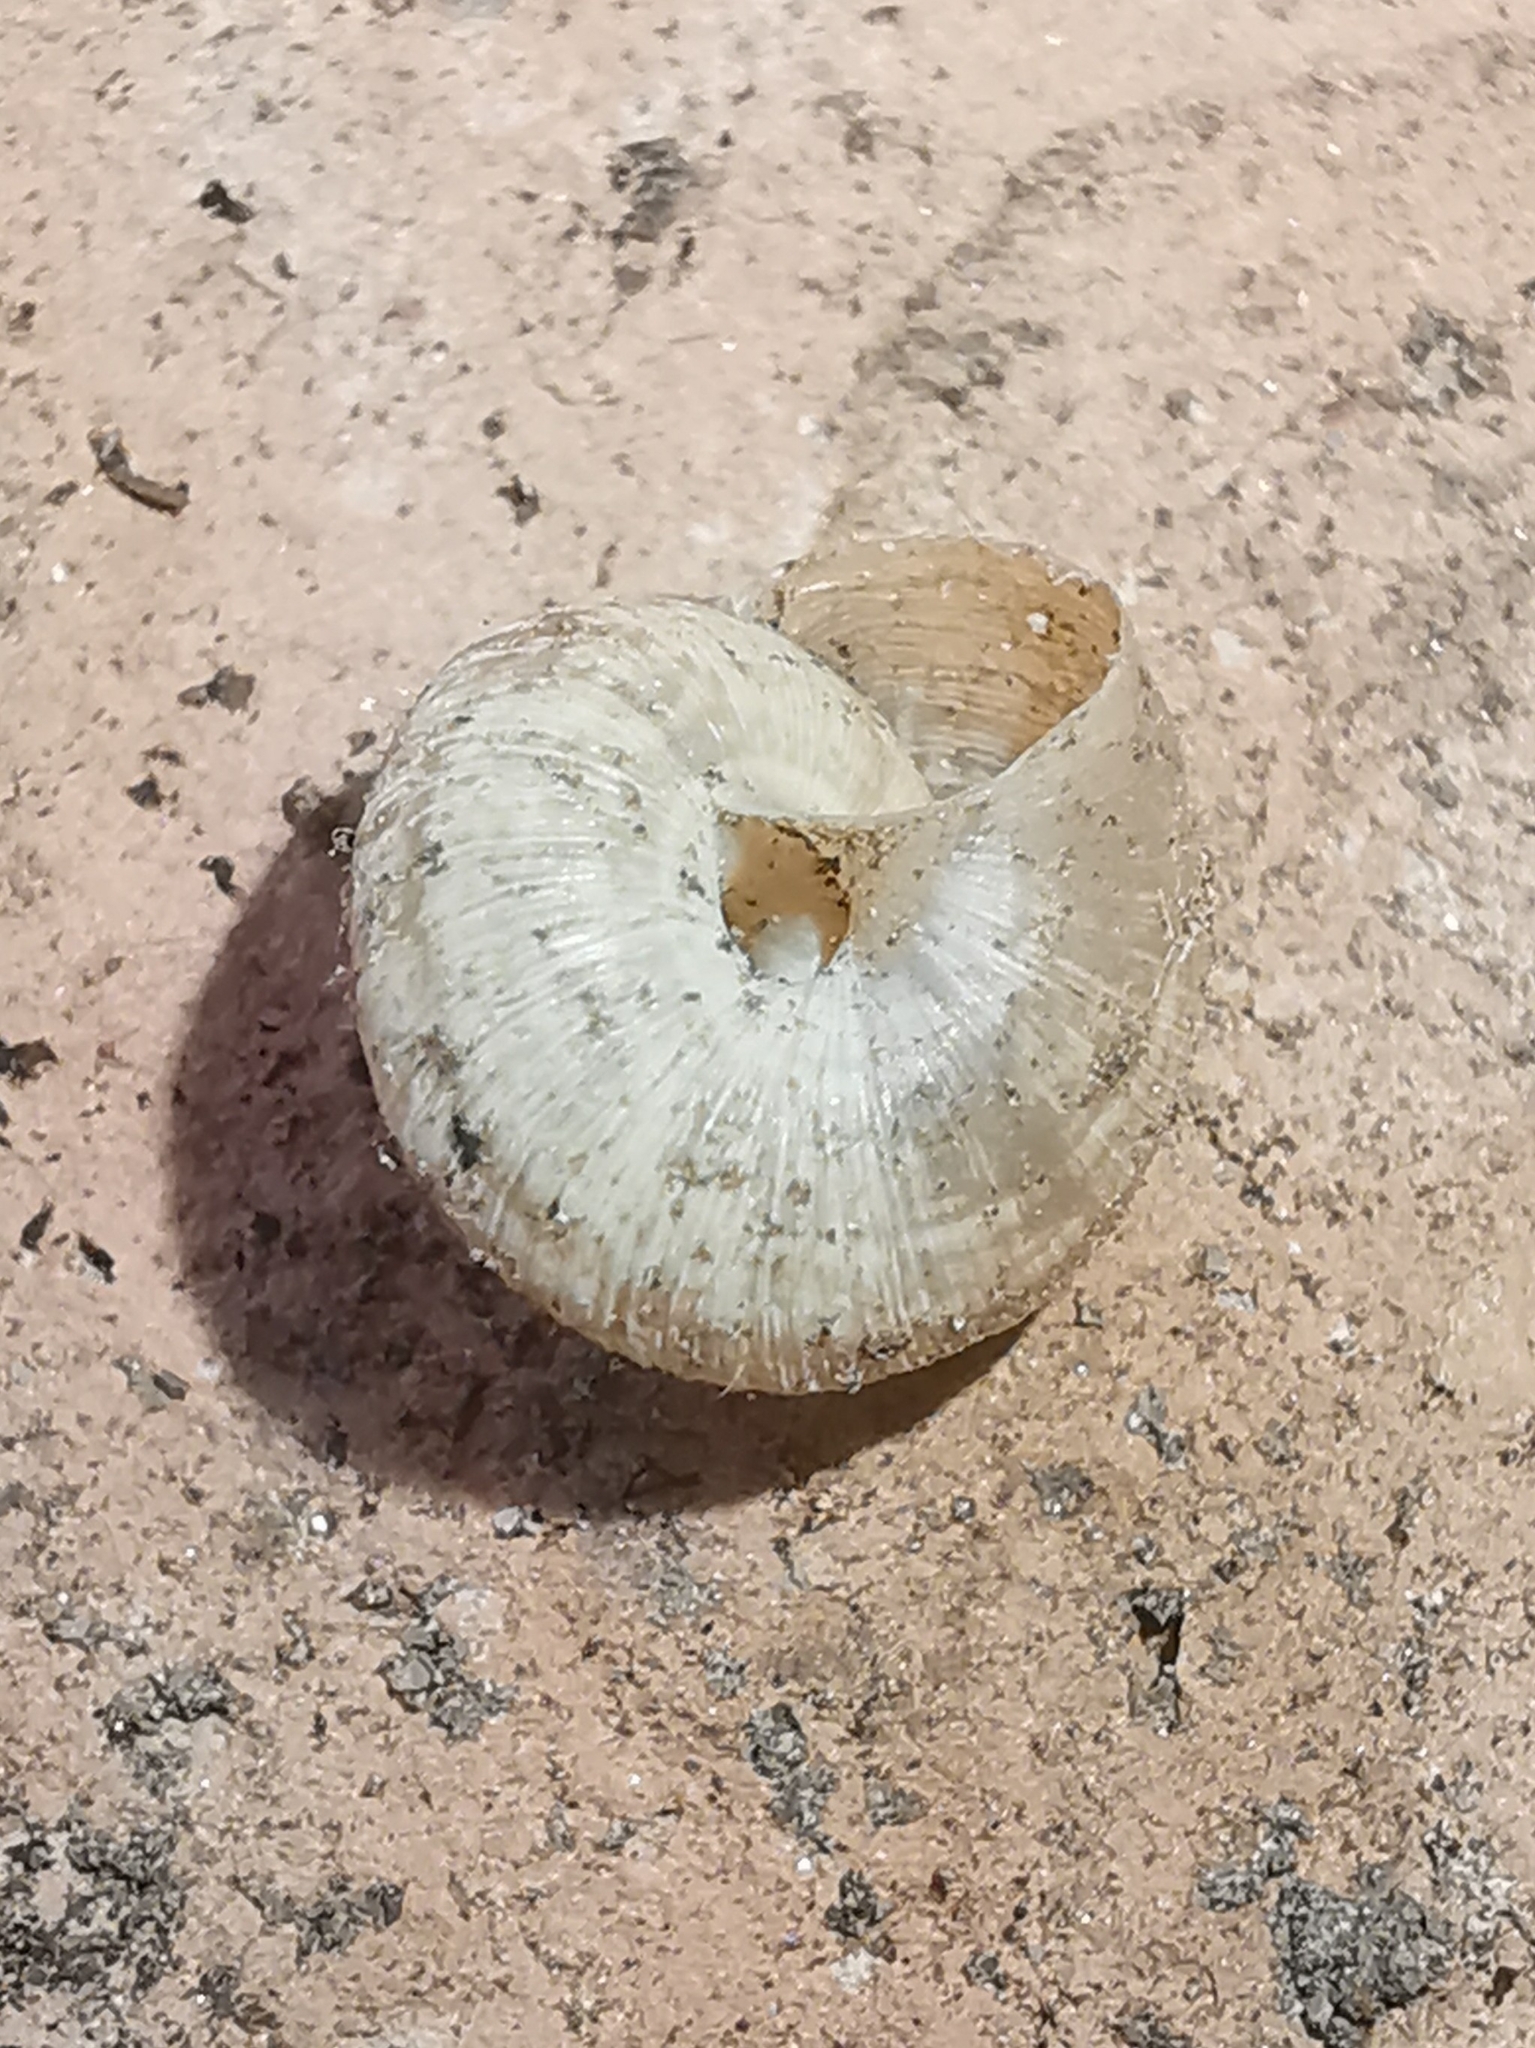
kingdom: Animalia
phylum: Mollusca
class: Gastropoda
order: Stylommatophora
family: Geomitridae
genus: Xerotricha
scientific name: Xerotricha conspurcata
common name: Snail
